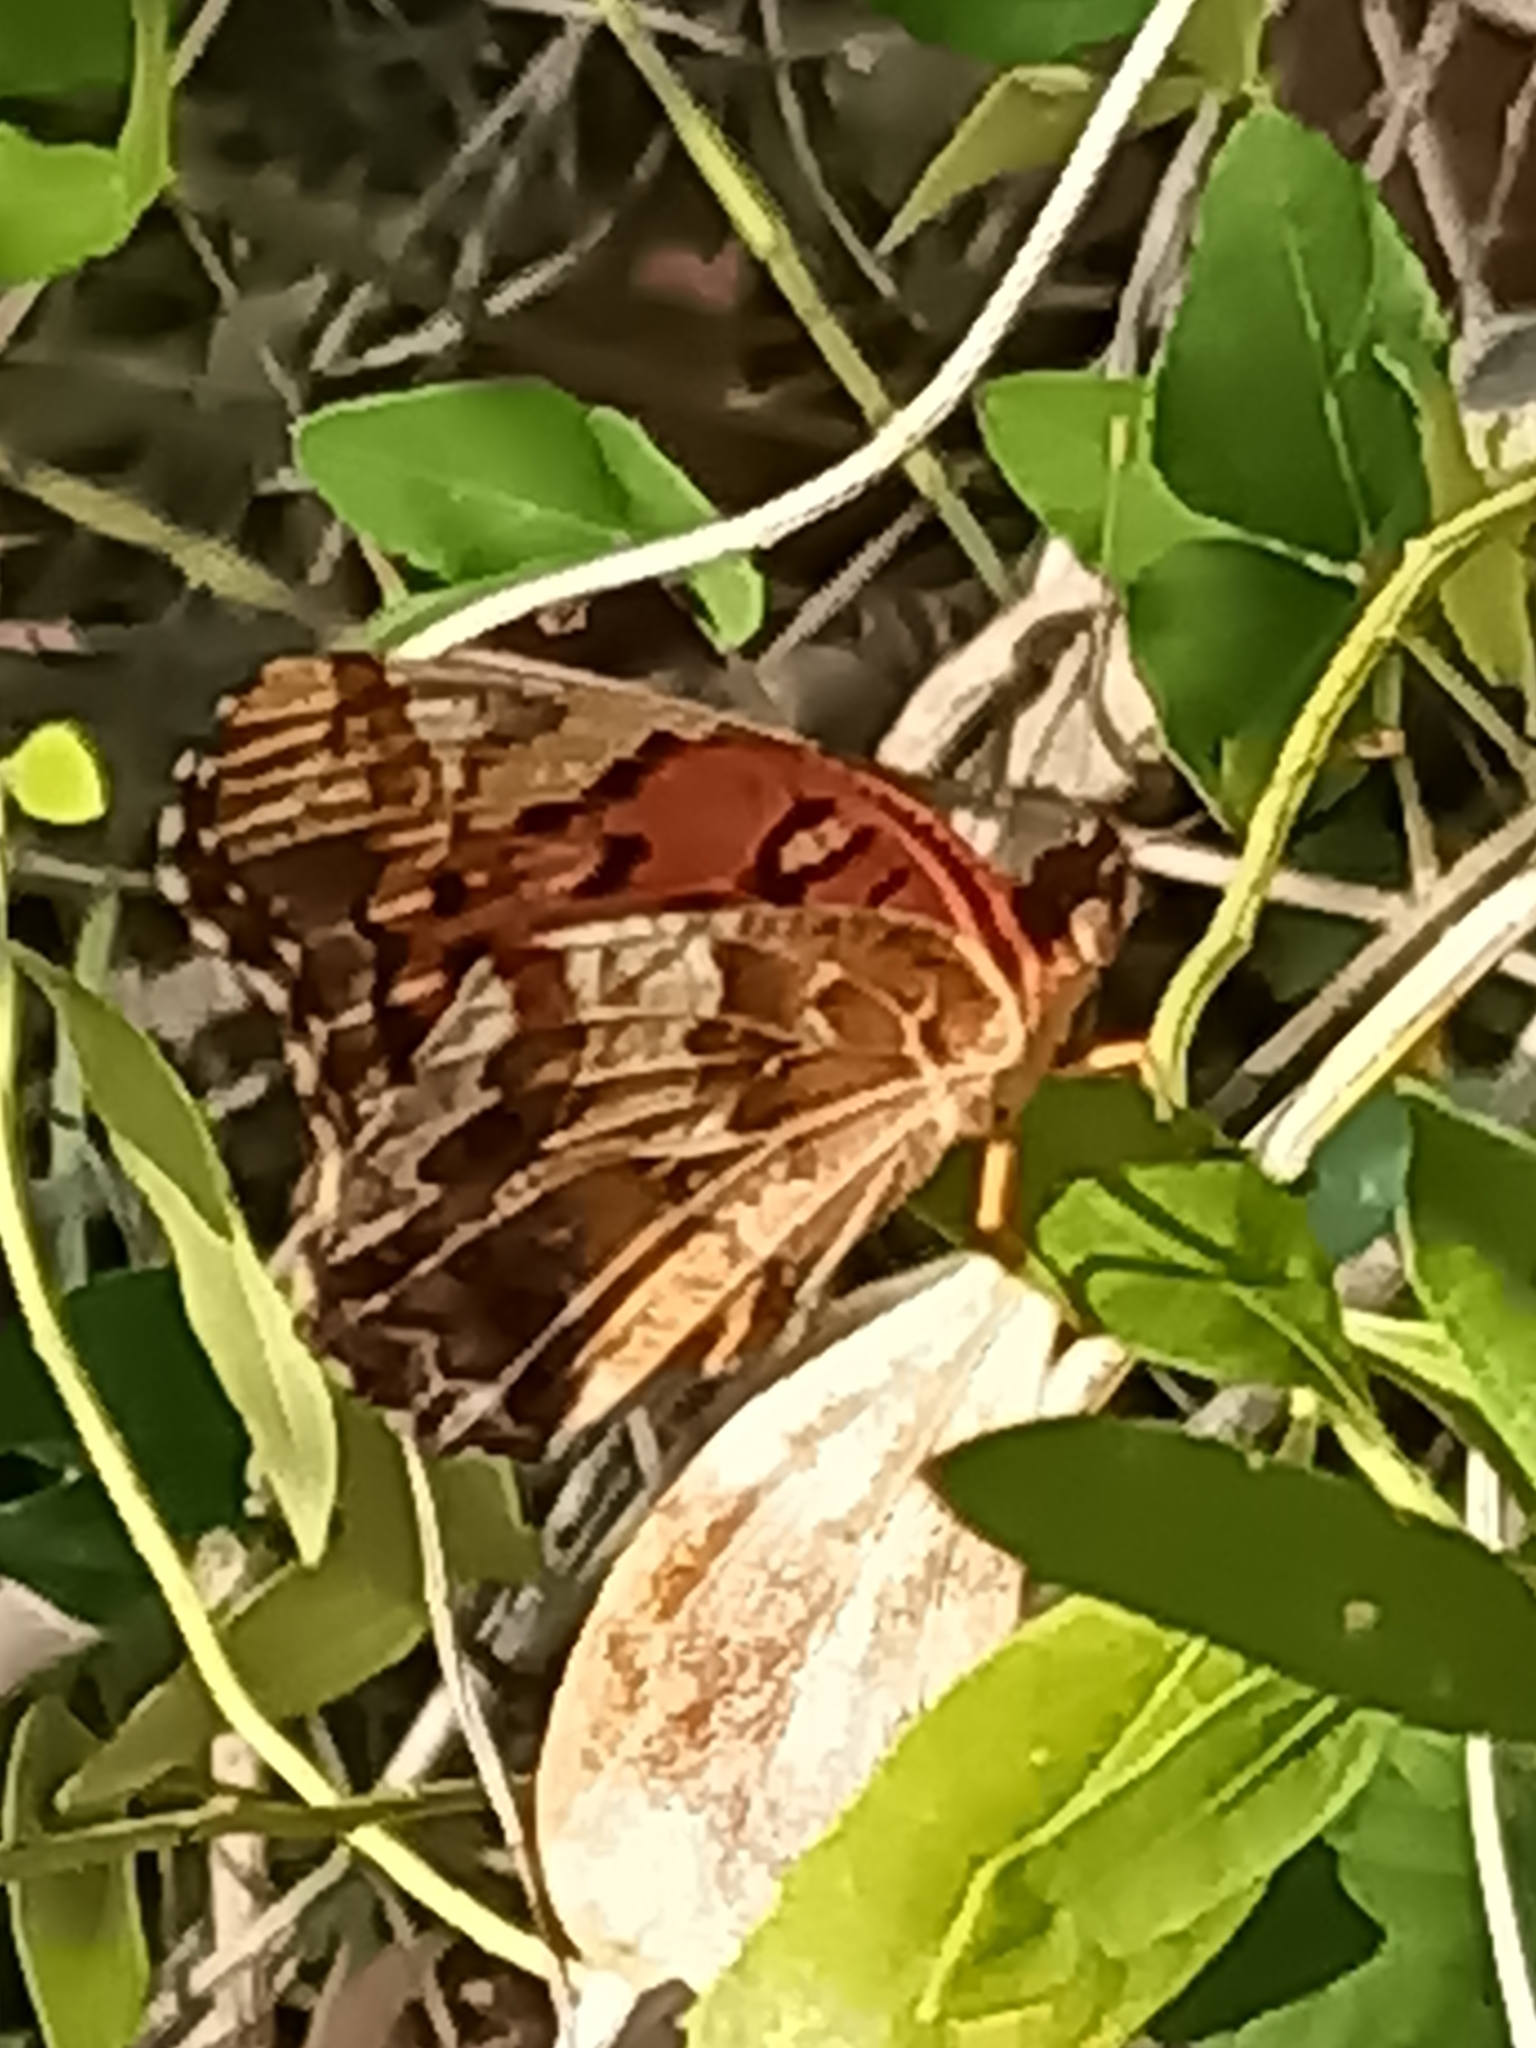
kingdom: Animalia
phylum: Arthropoda
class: Insecta
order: Lepidoptera
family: Nymphalidae
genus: Euptoieta
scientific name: Euptoieta claudia
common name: Variegated fritillary
